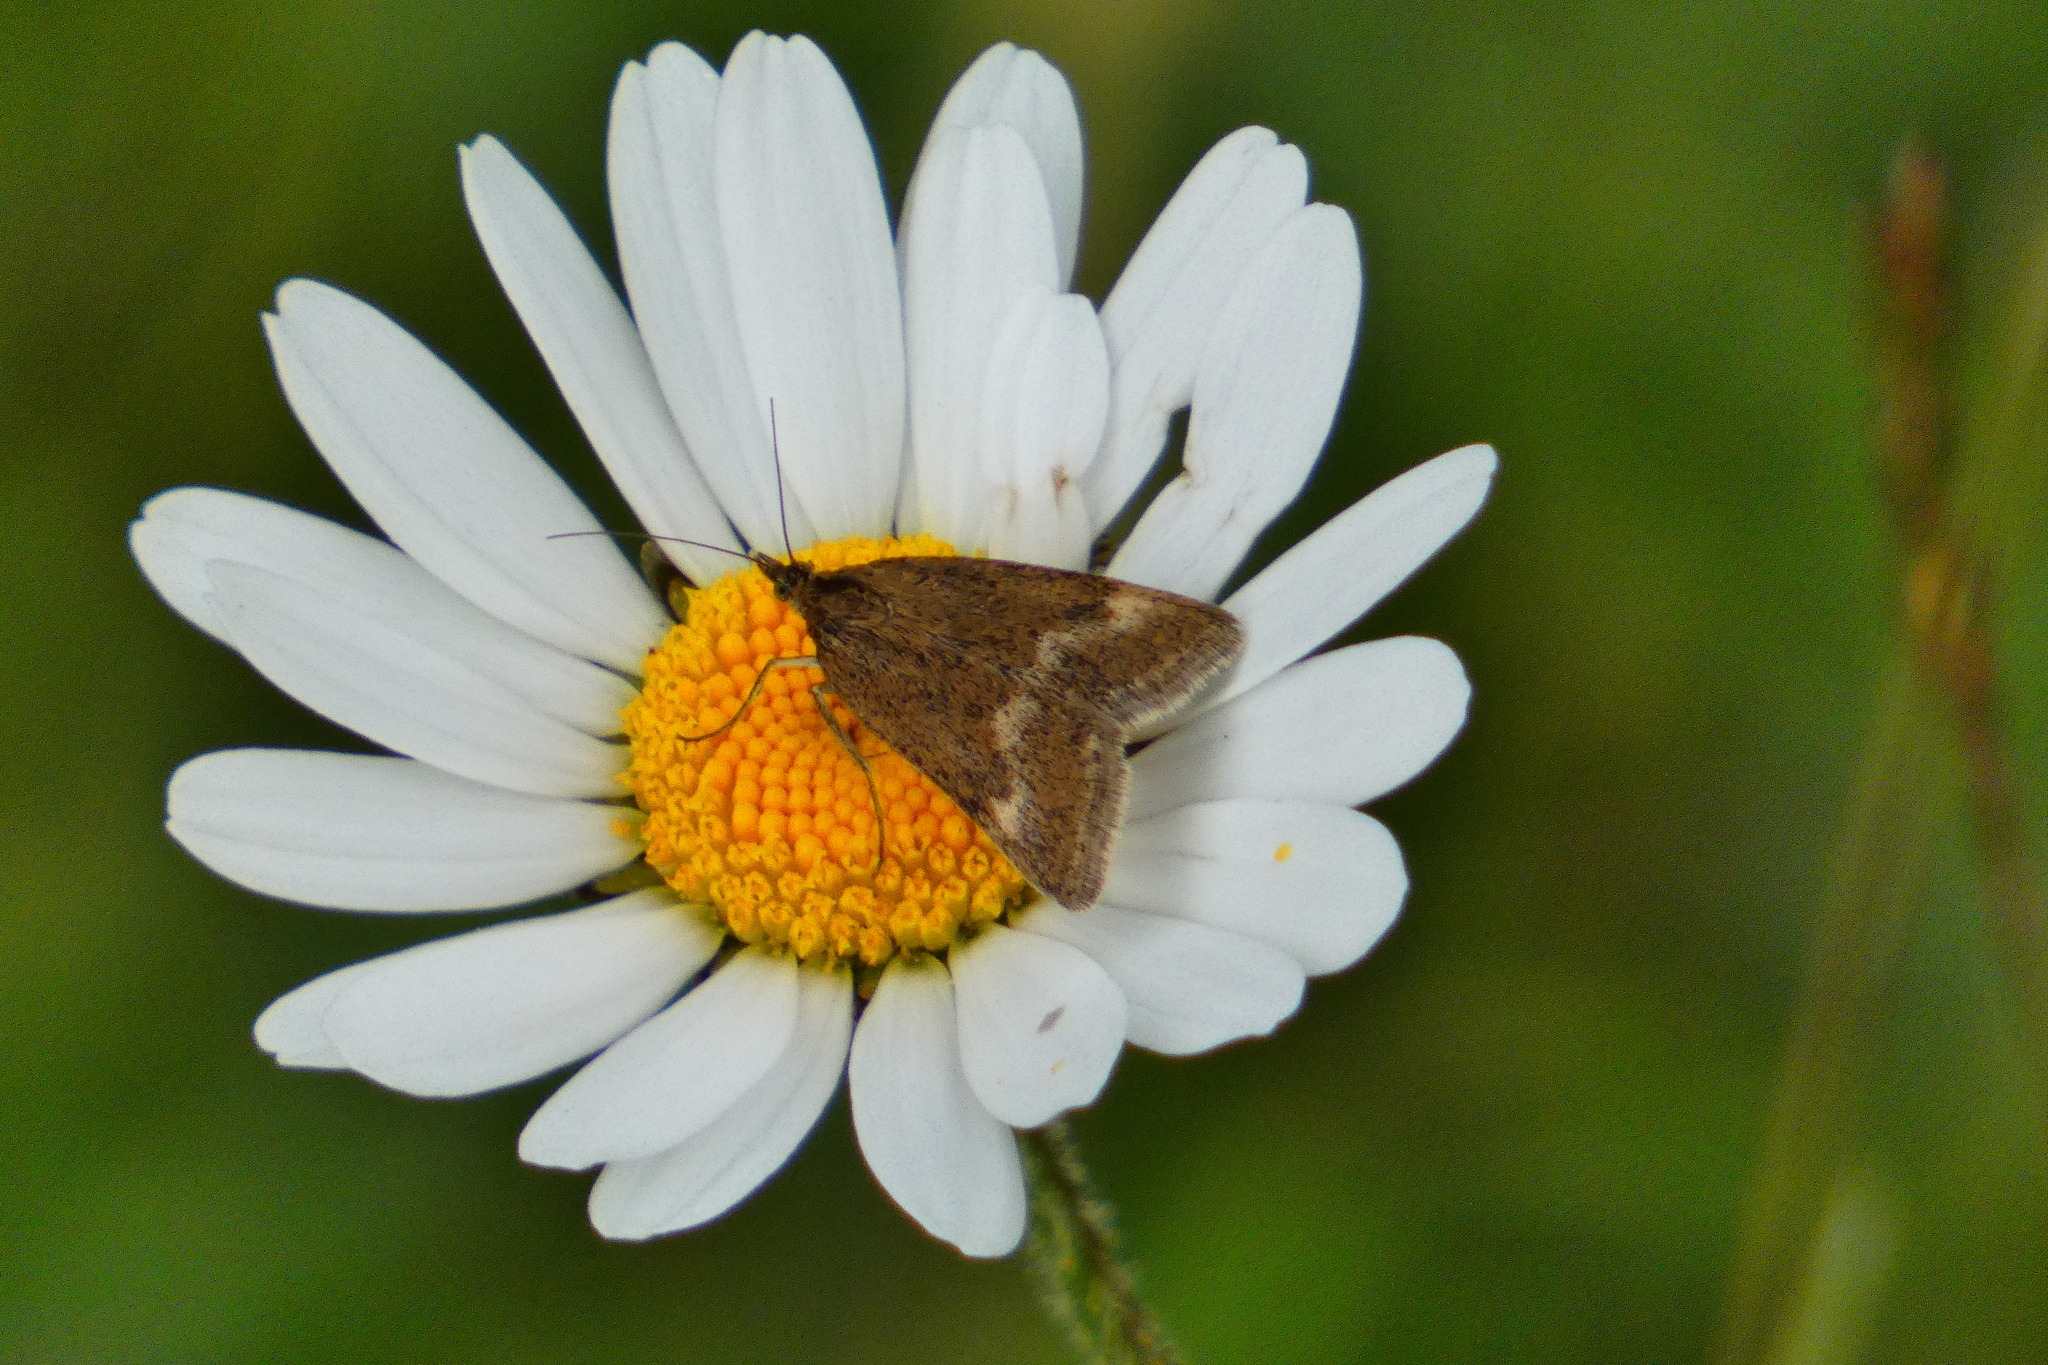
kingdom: Animalia
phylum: Arthropoda
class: Insecta
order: Lepidoptera
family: Crambidae
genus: Pyrausta
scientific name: Pyrausta aerealis
